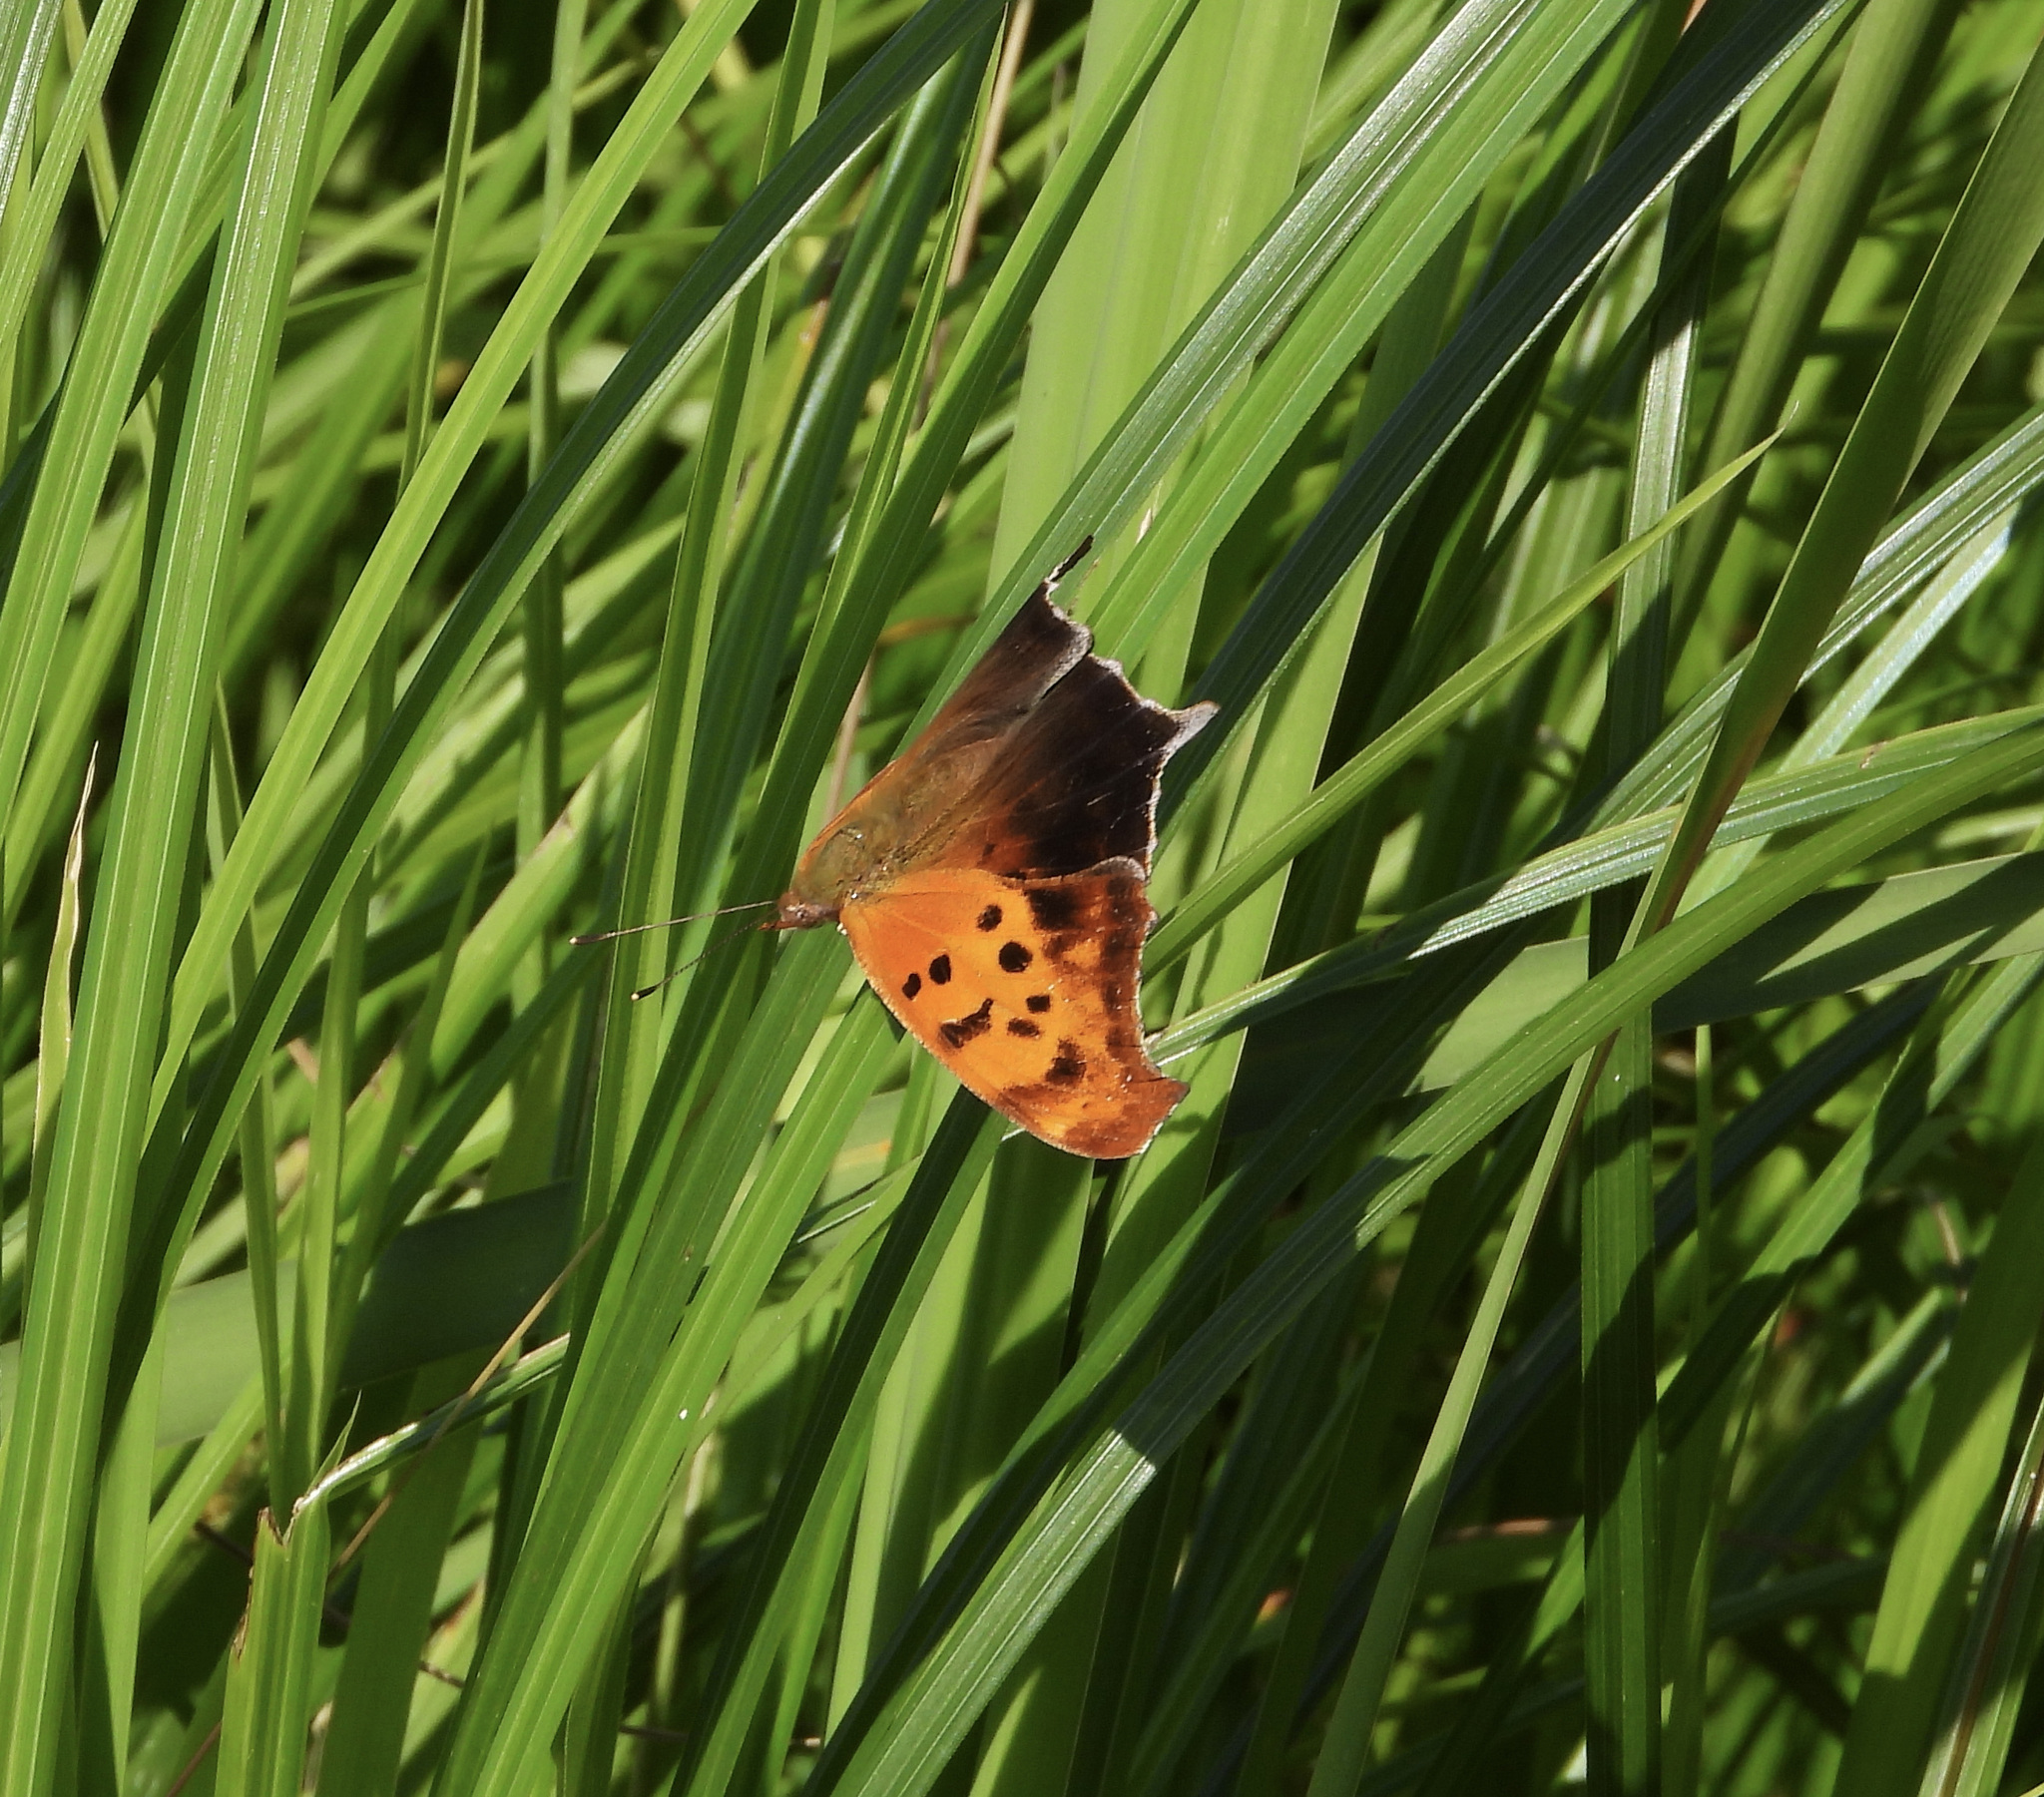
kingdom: Animalia
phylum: Arthropoda
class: Insecta
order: Lepidoptera
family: Nymphalidae
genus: Polygonia
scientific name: Polygonia interrogationis
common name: Question mark
